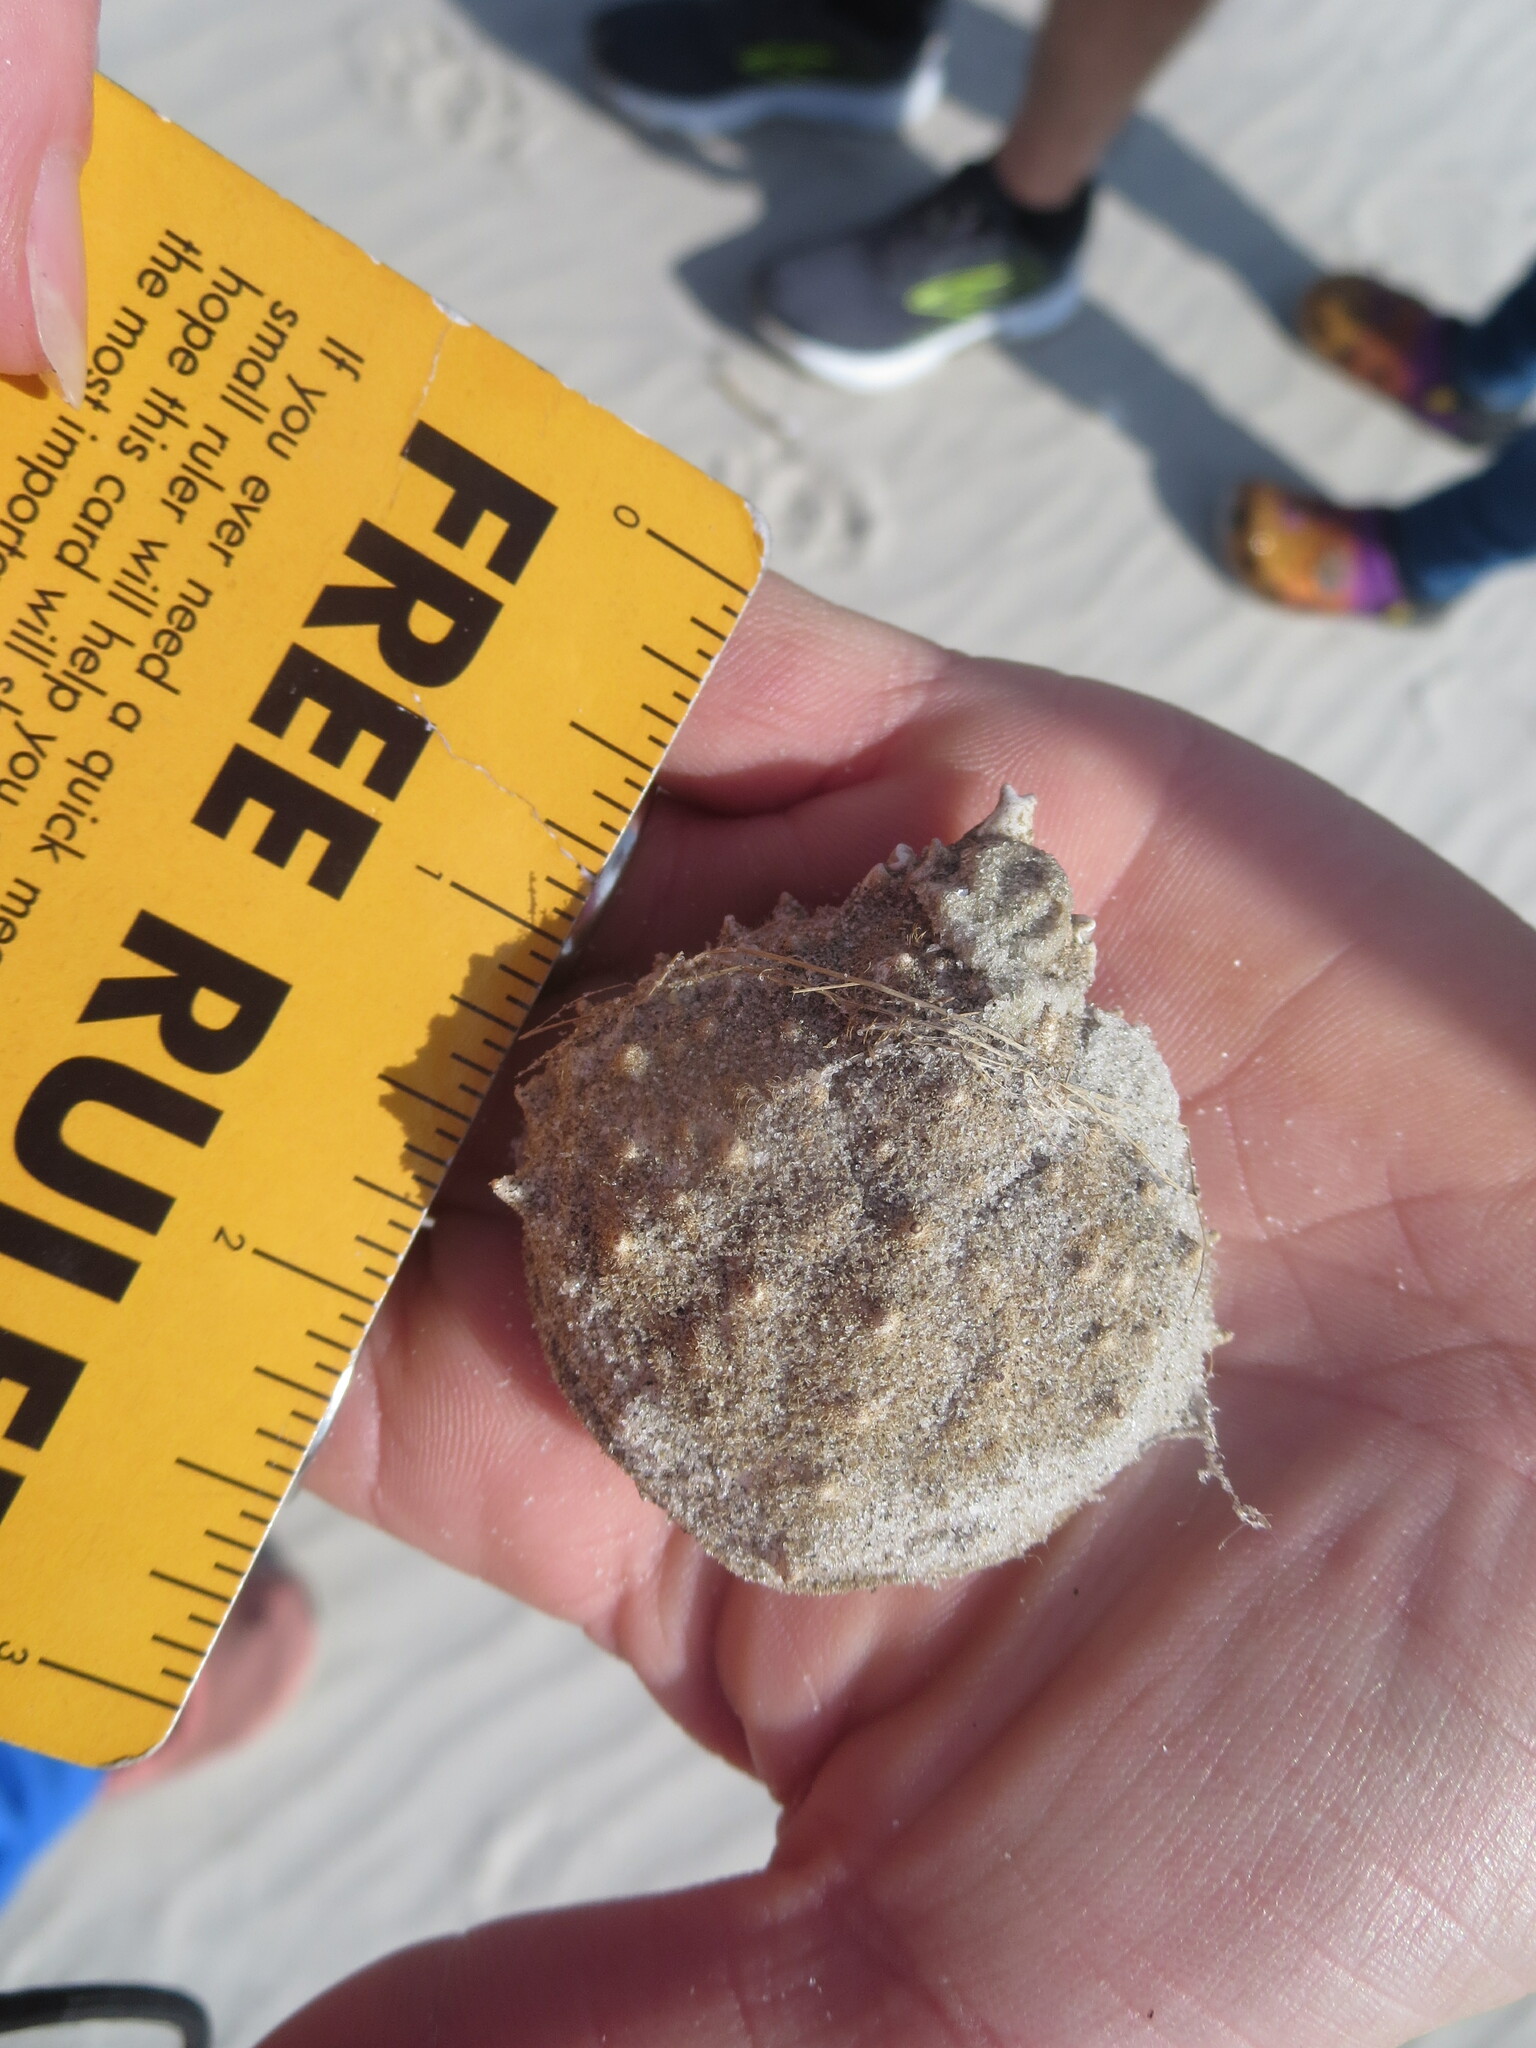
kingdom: Animalia
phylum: Arthropoda
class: Malacostraca
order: Decapoda
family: Epialtidae
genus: Libinia
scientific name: Libinia emarginata
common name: Common spider crab
